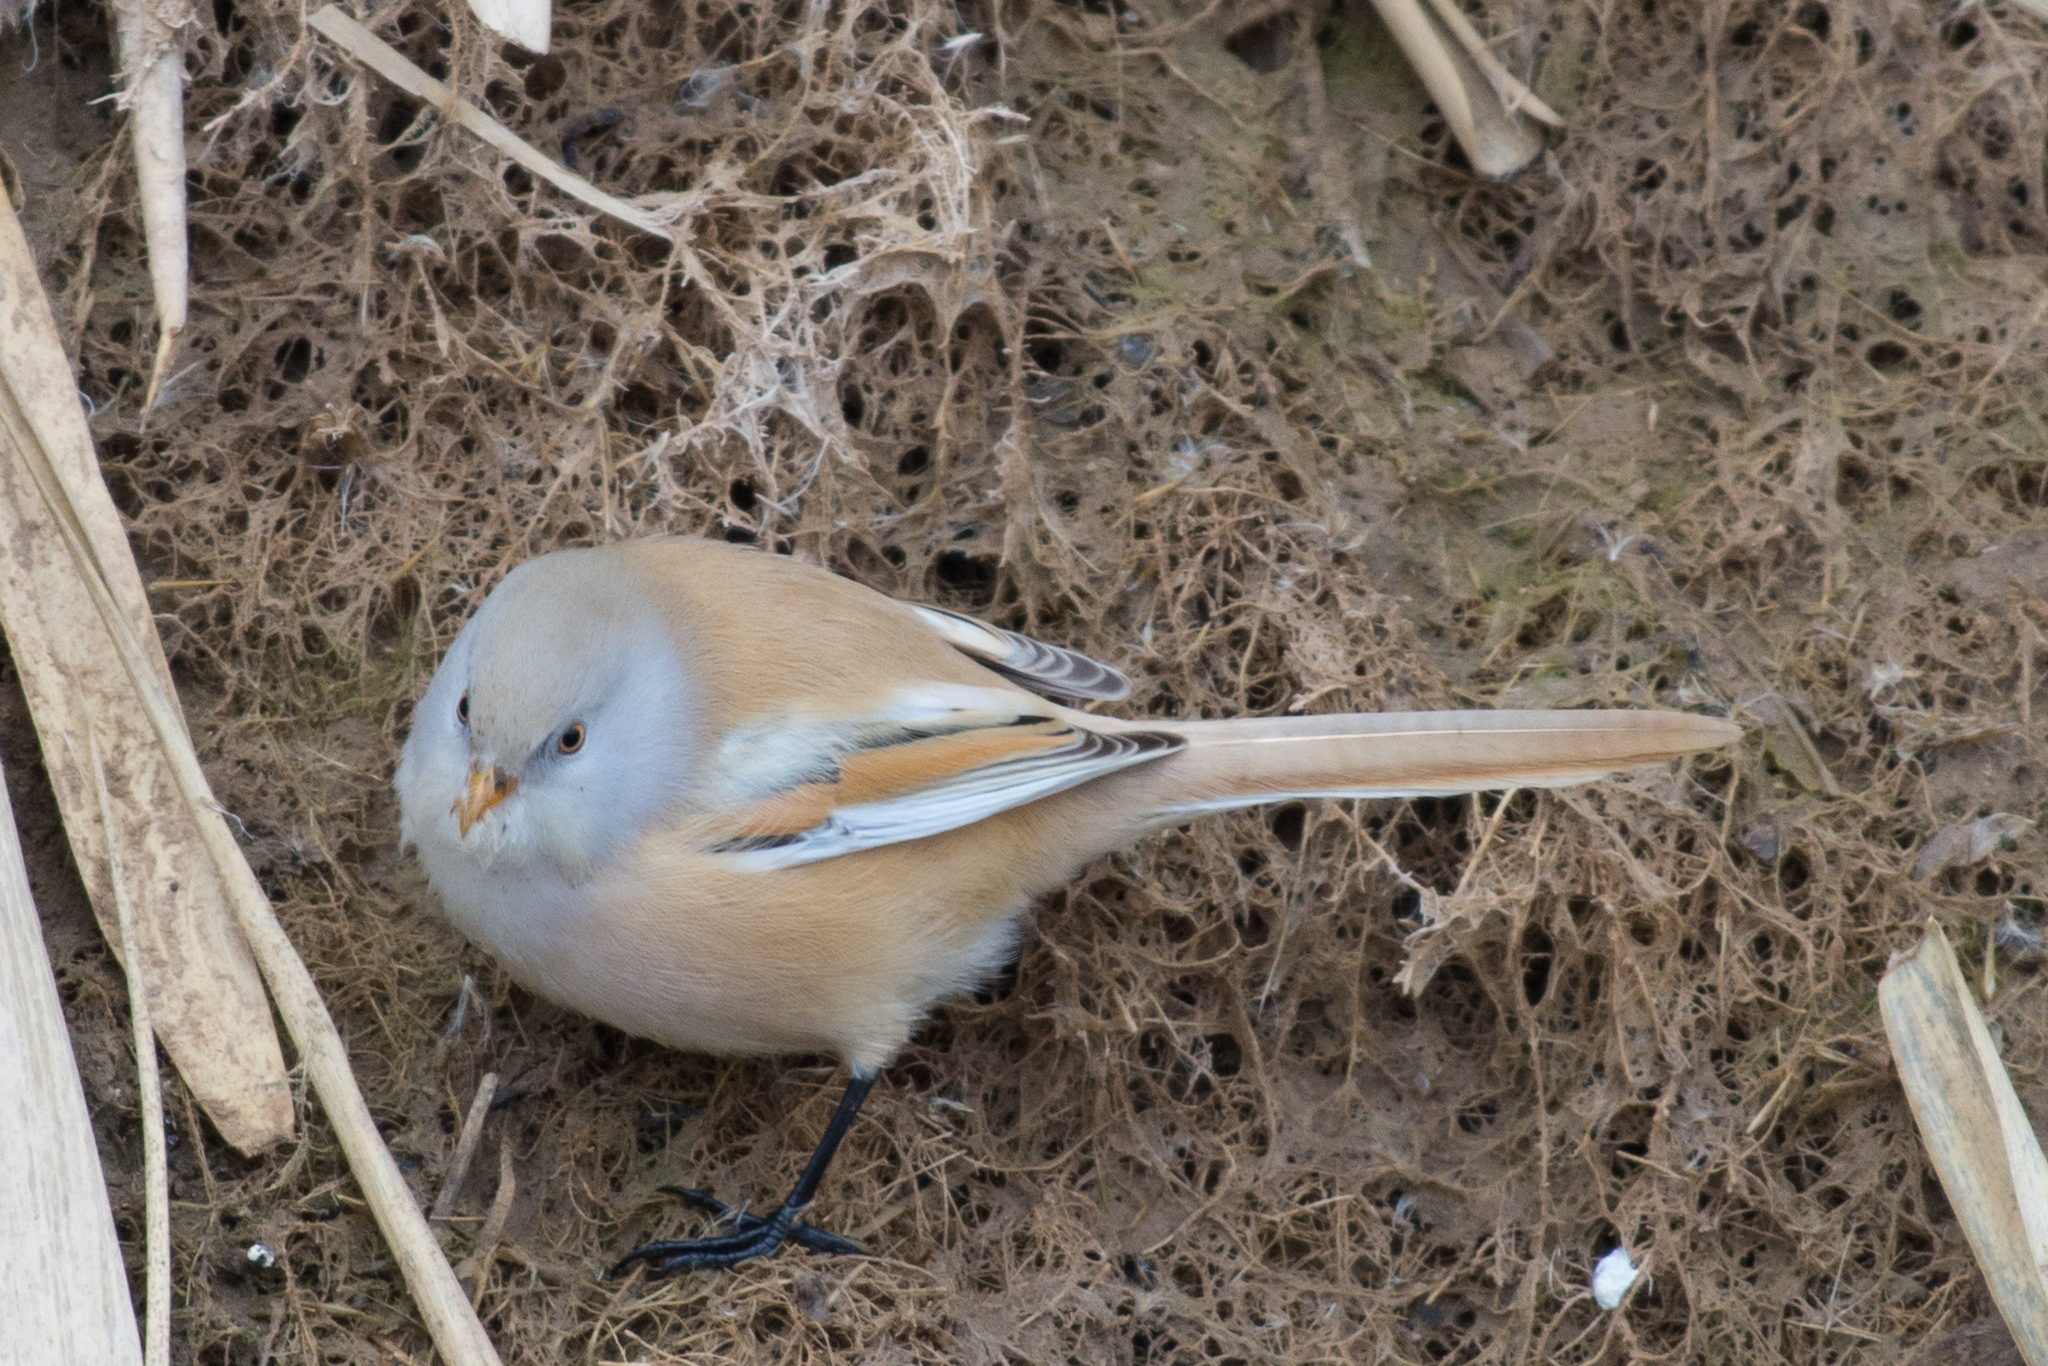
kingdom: Animalia
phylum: Chordata
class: Aves
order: Passeriformes
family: Panuridae
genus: Panurus
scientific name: Panurus biarmicus
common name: Bearded reedling
